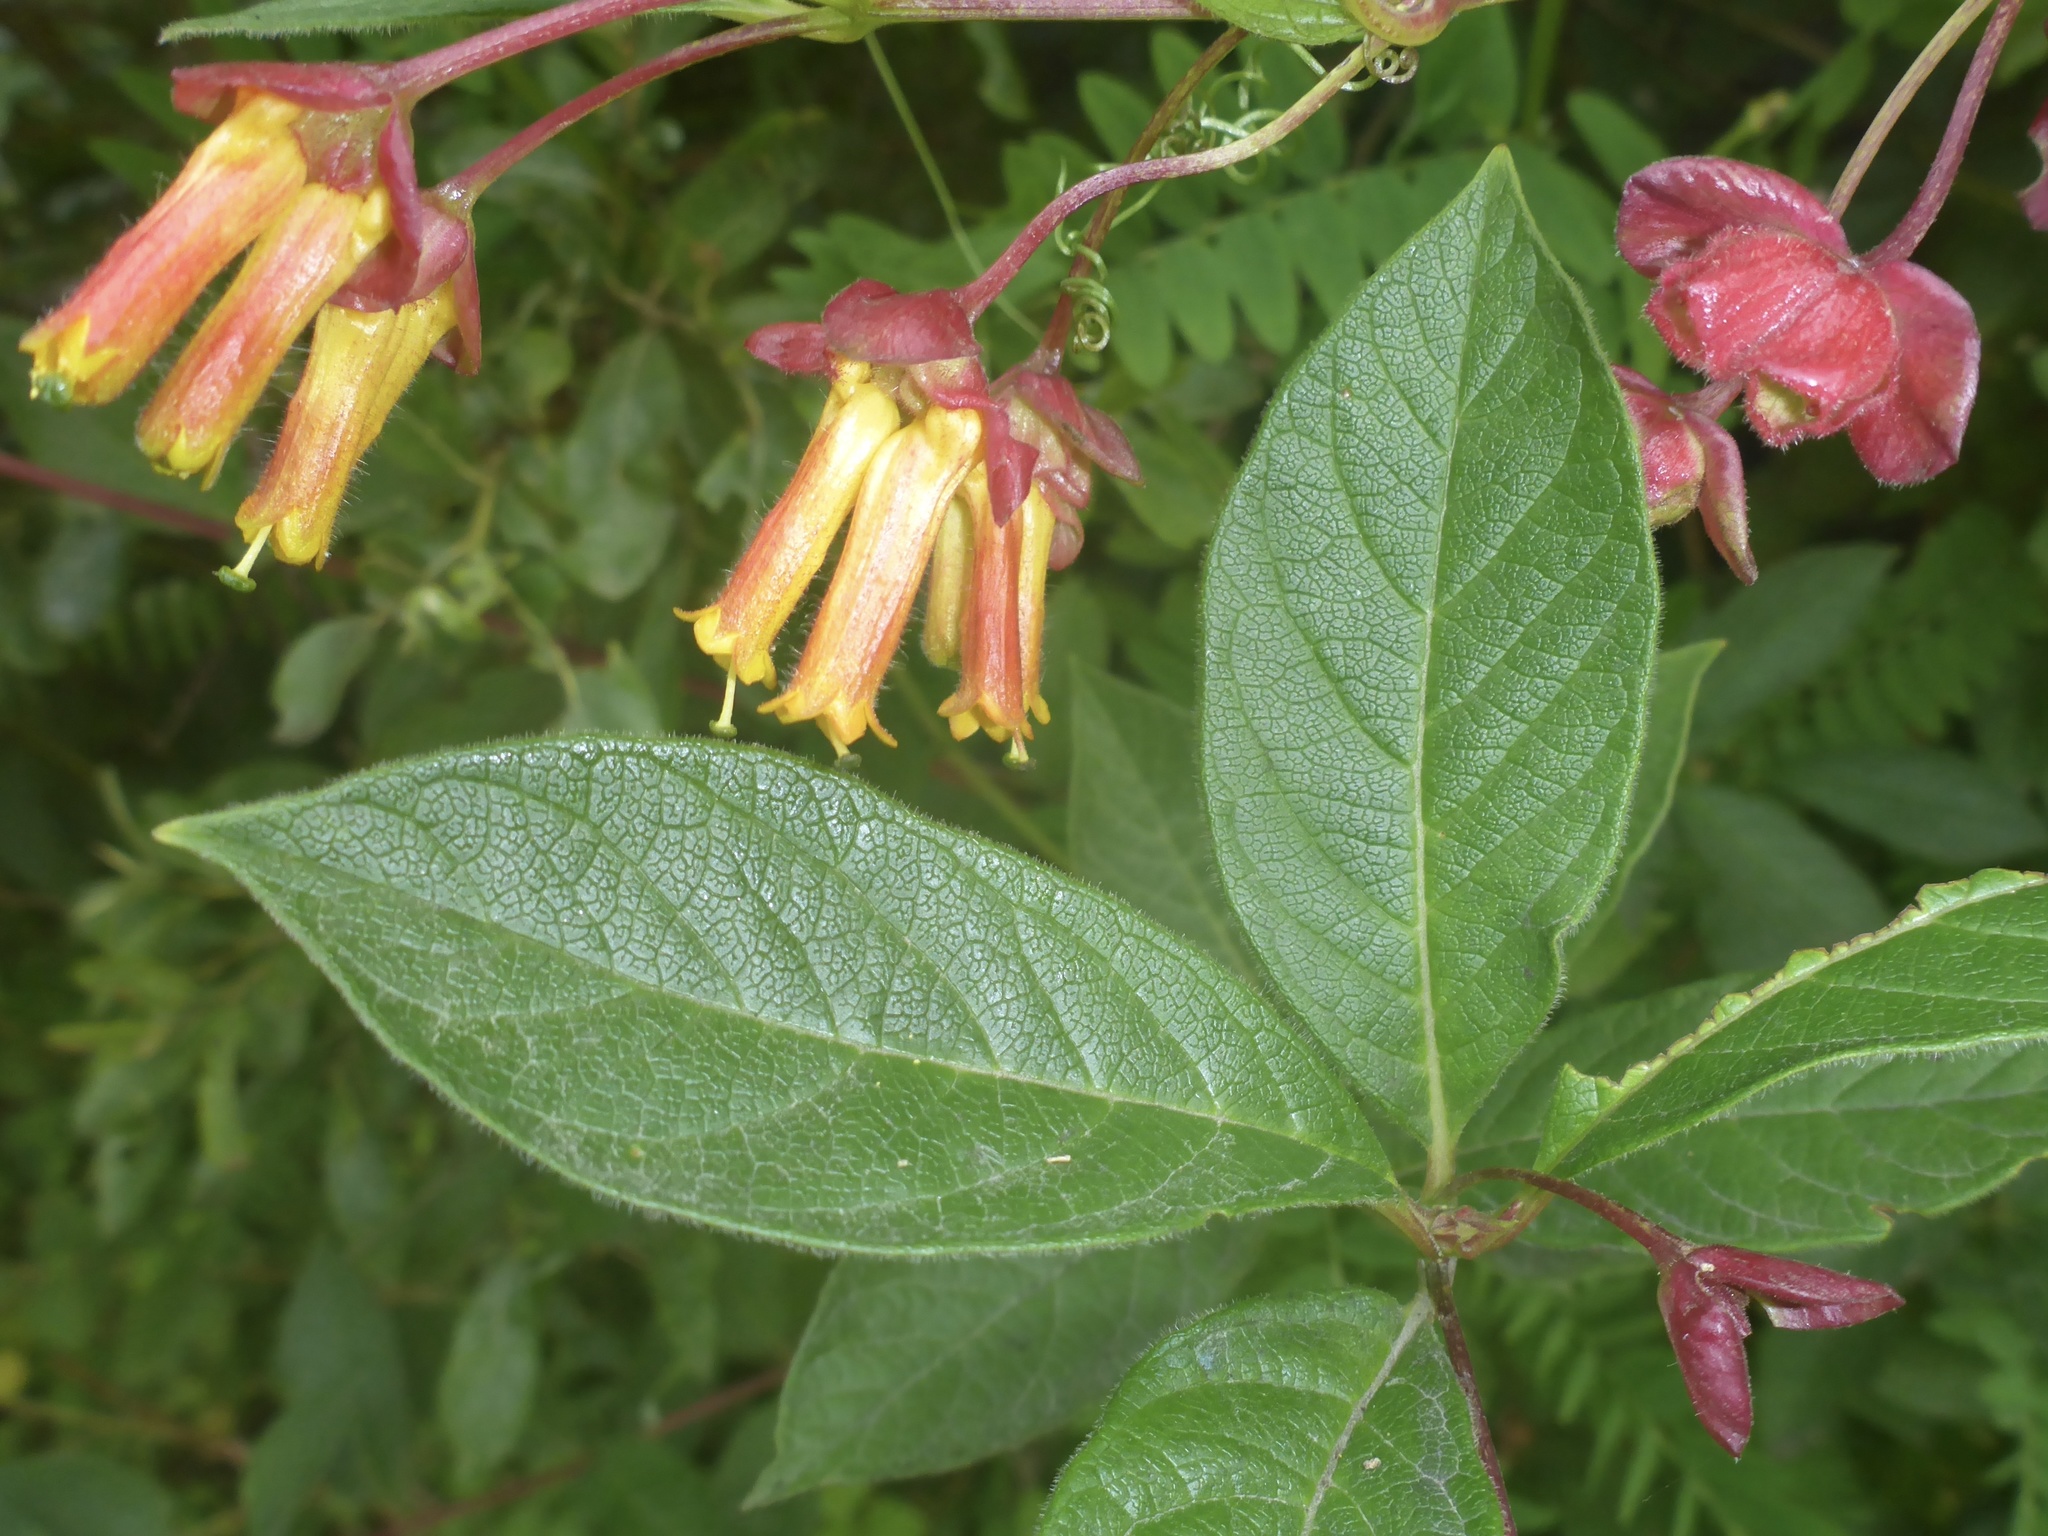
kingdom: Plantae
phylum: Tracheophyta
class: Magnoliopsida
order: Dipsacales
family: Caprifoliaceae
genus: Lonicera
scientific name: Lonicera involucrata
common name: Californian honeysuckle
